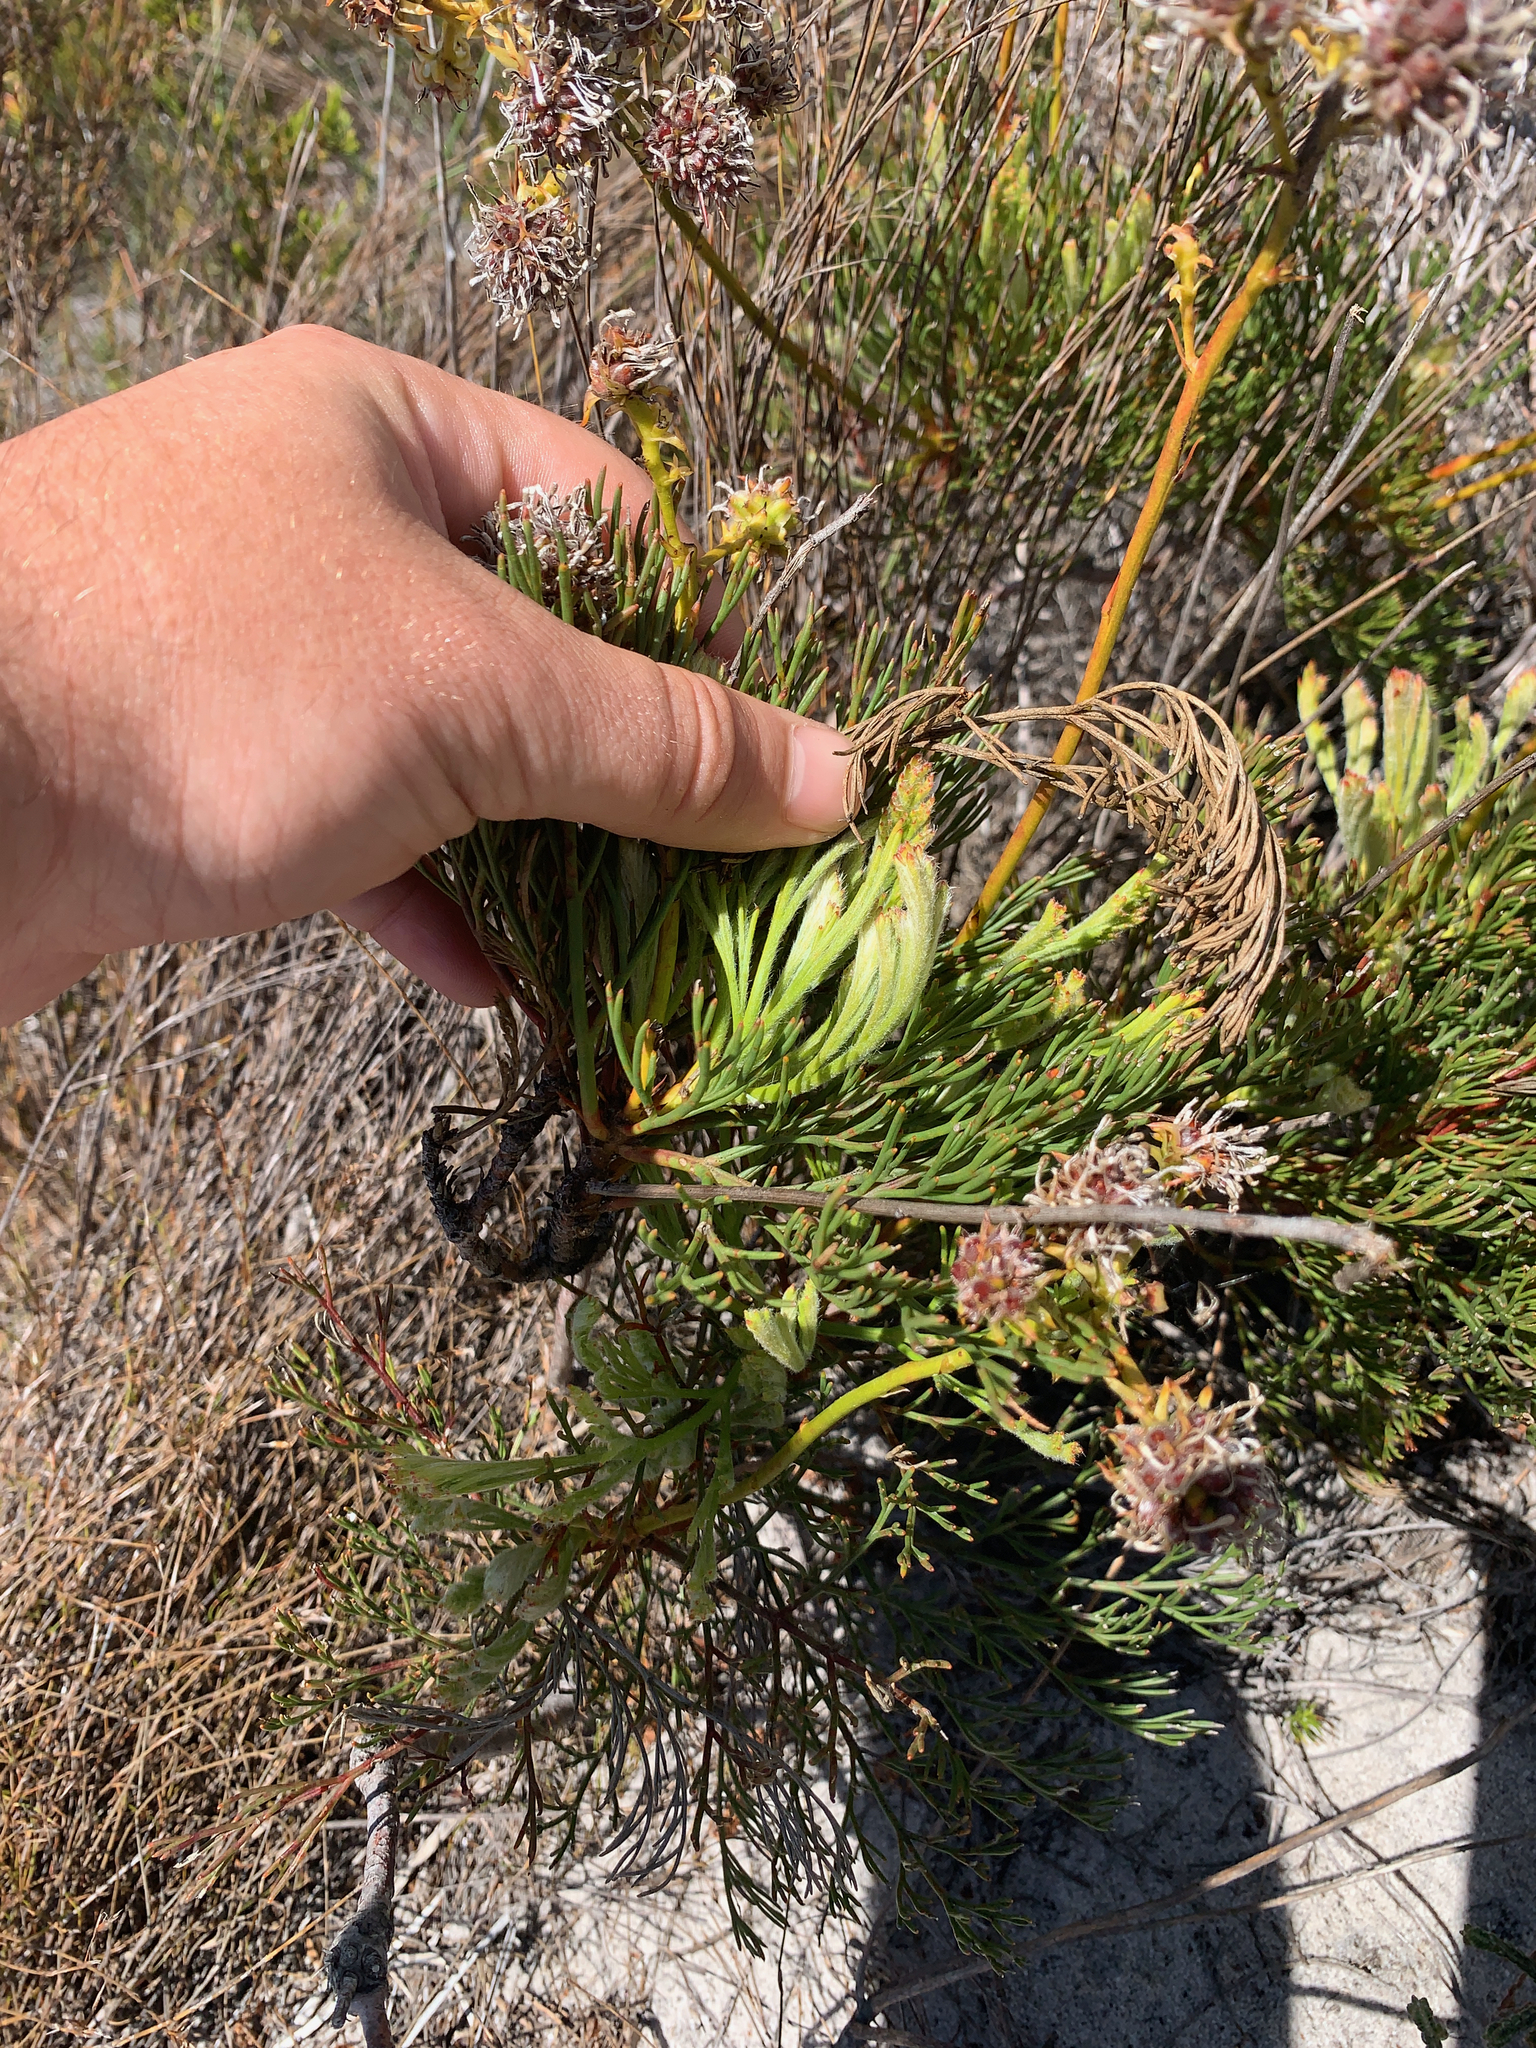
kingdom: Plantae
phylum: Tracheophyta
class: Magnoliopsida
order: Proteales
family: Proteaceae
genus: Serruria
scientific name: Serruria elongata
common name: Long-stalk spiderhead
